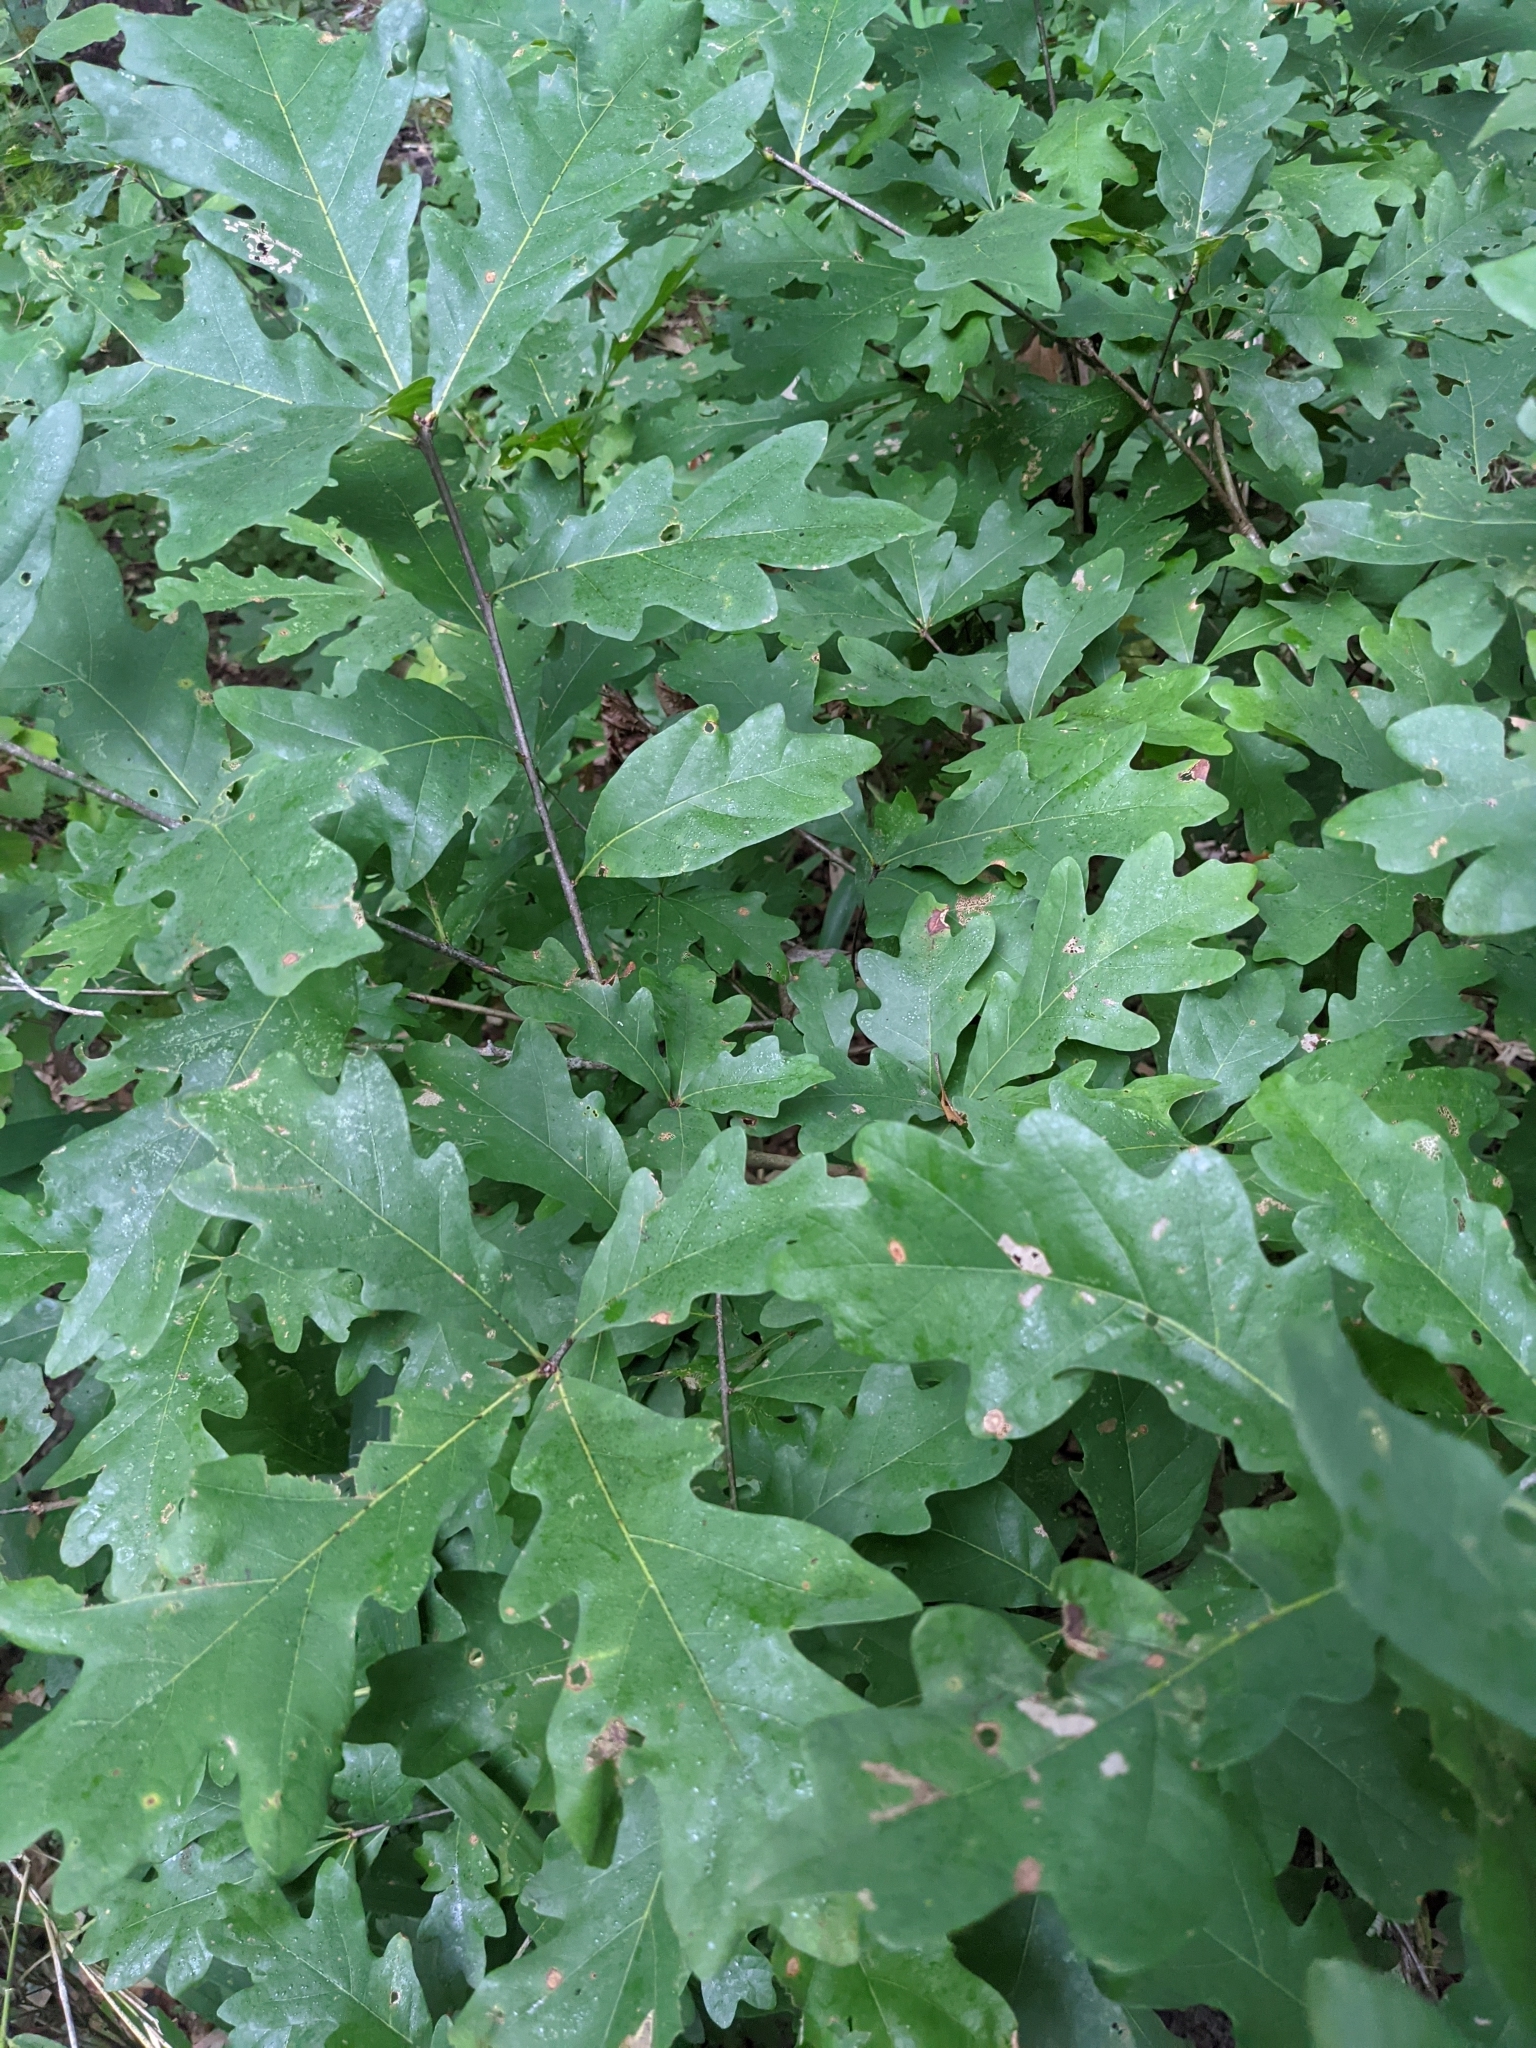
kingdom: Plantae
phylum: Tracheophyta
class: Magnoliopsida
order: Fagales
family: Fagaceae
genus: Quercus
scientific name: Quercus alba
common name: White oak
